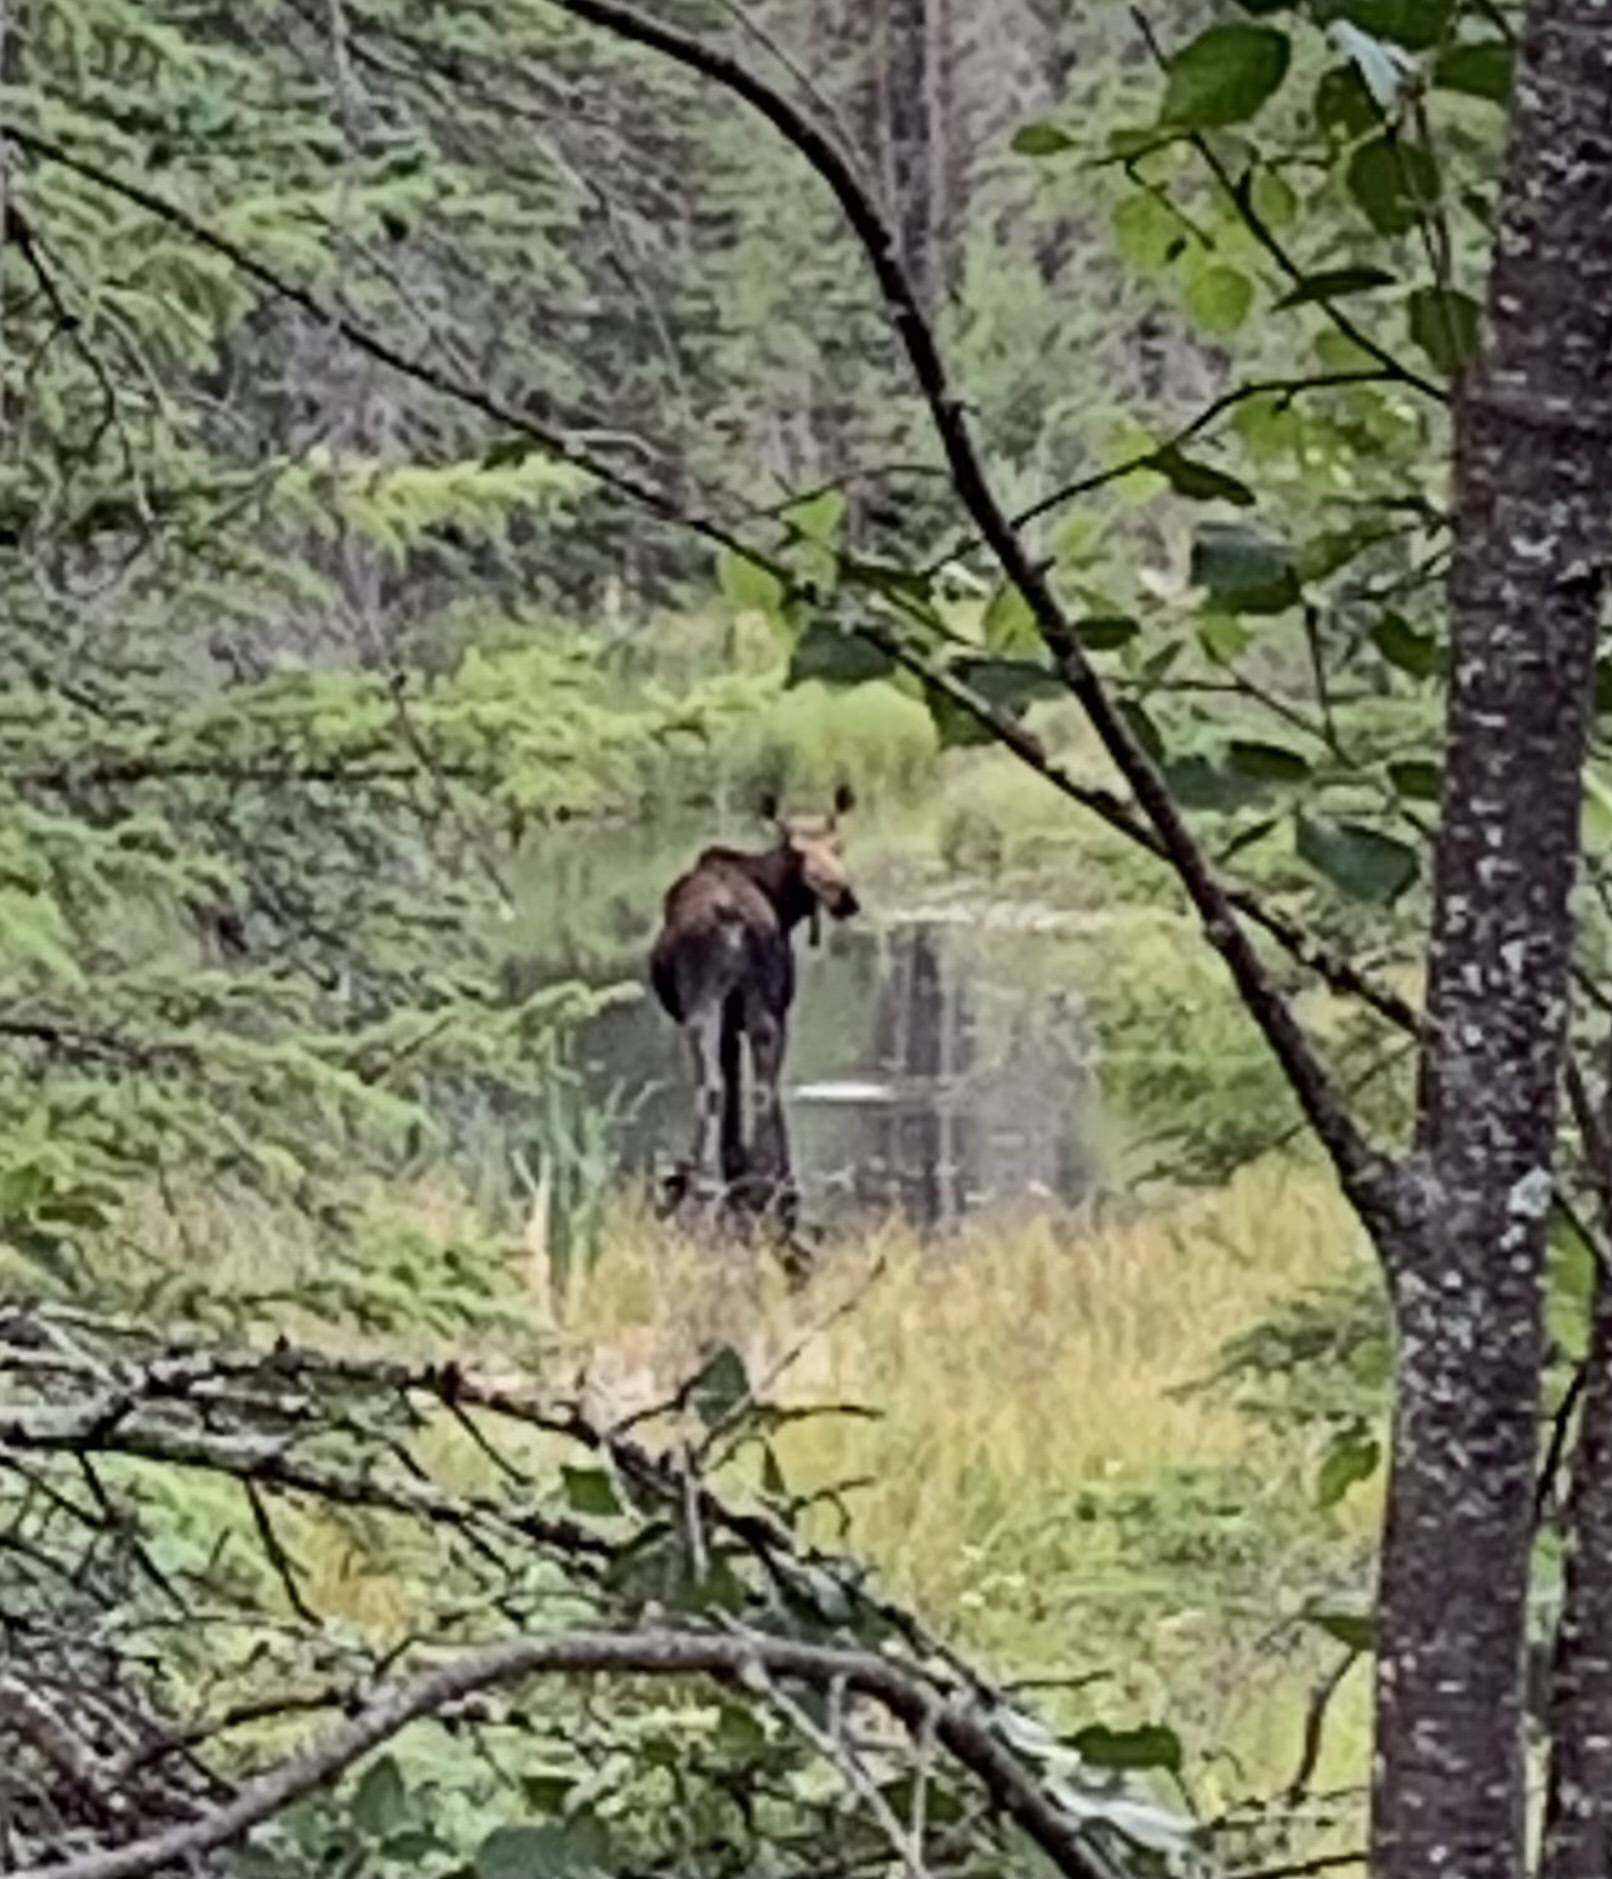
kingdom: Animalia
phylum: Chordata
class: Mammalia
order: Artiodactyla
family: Cervidae
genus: Alces
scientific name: Alces alces
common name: Moose
